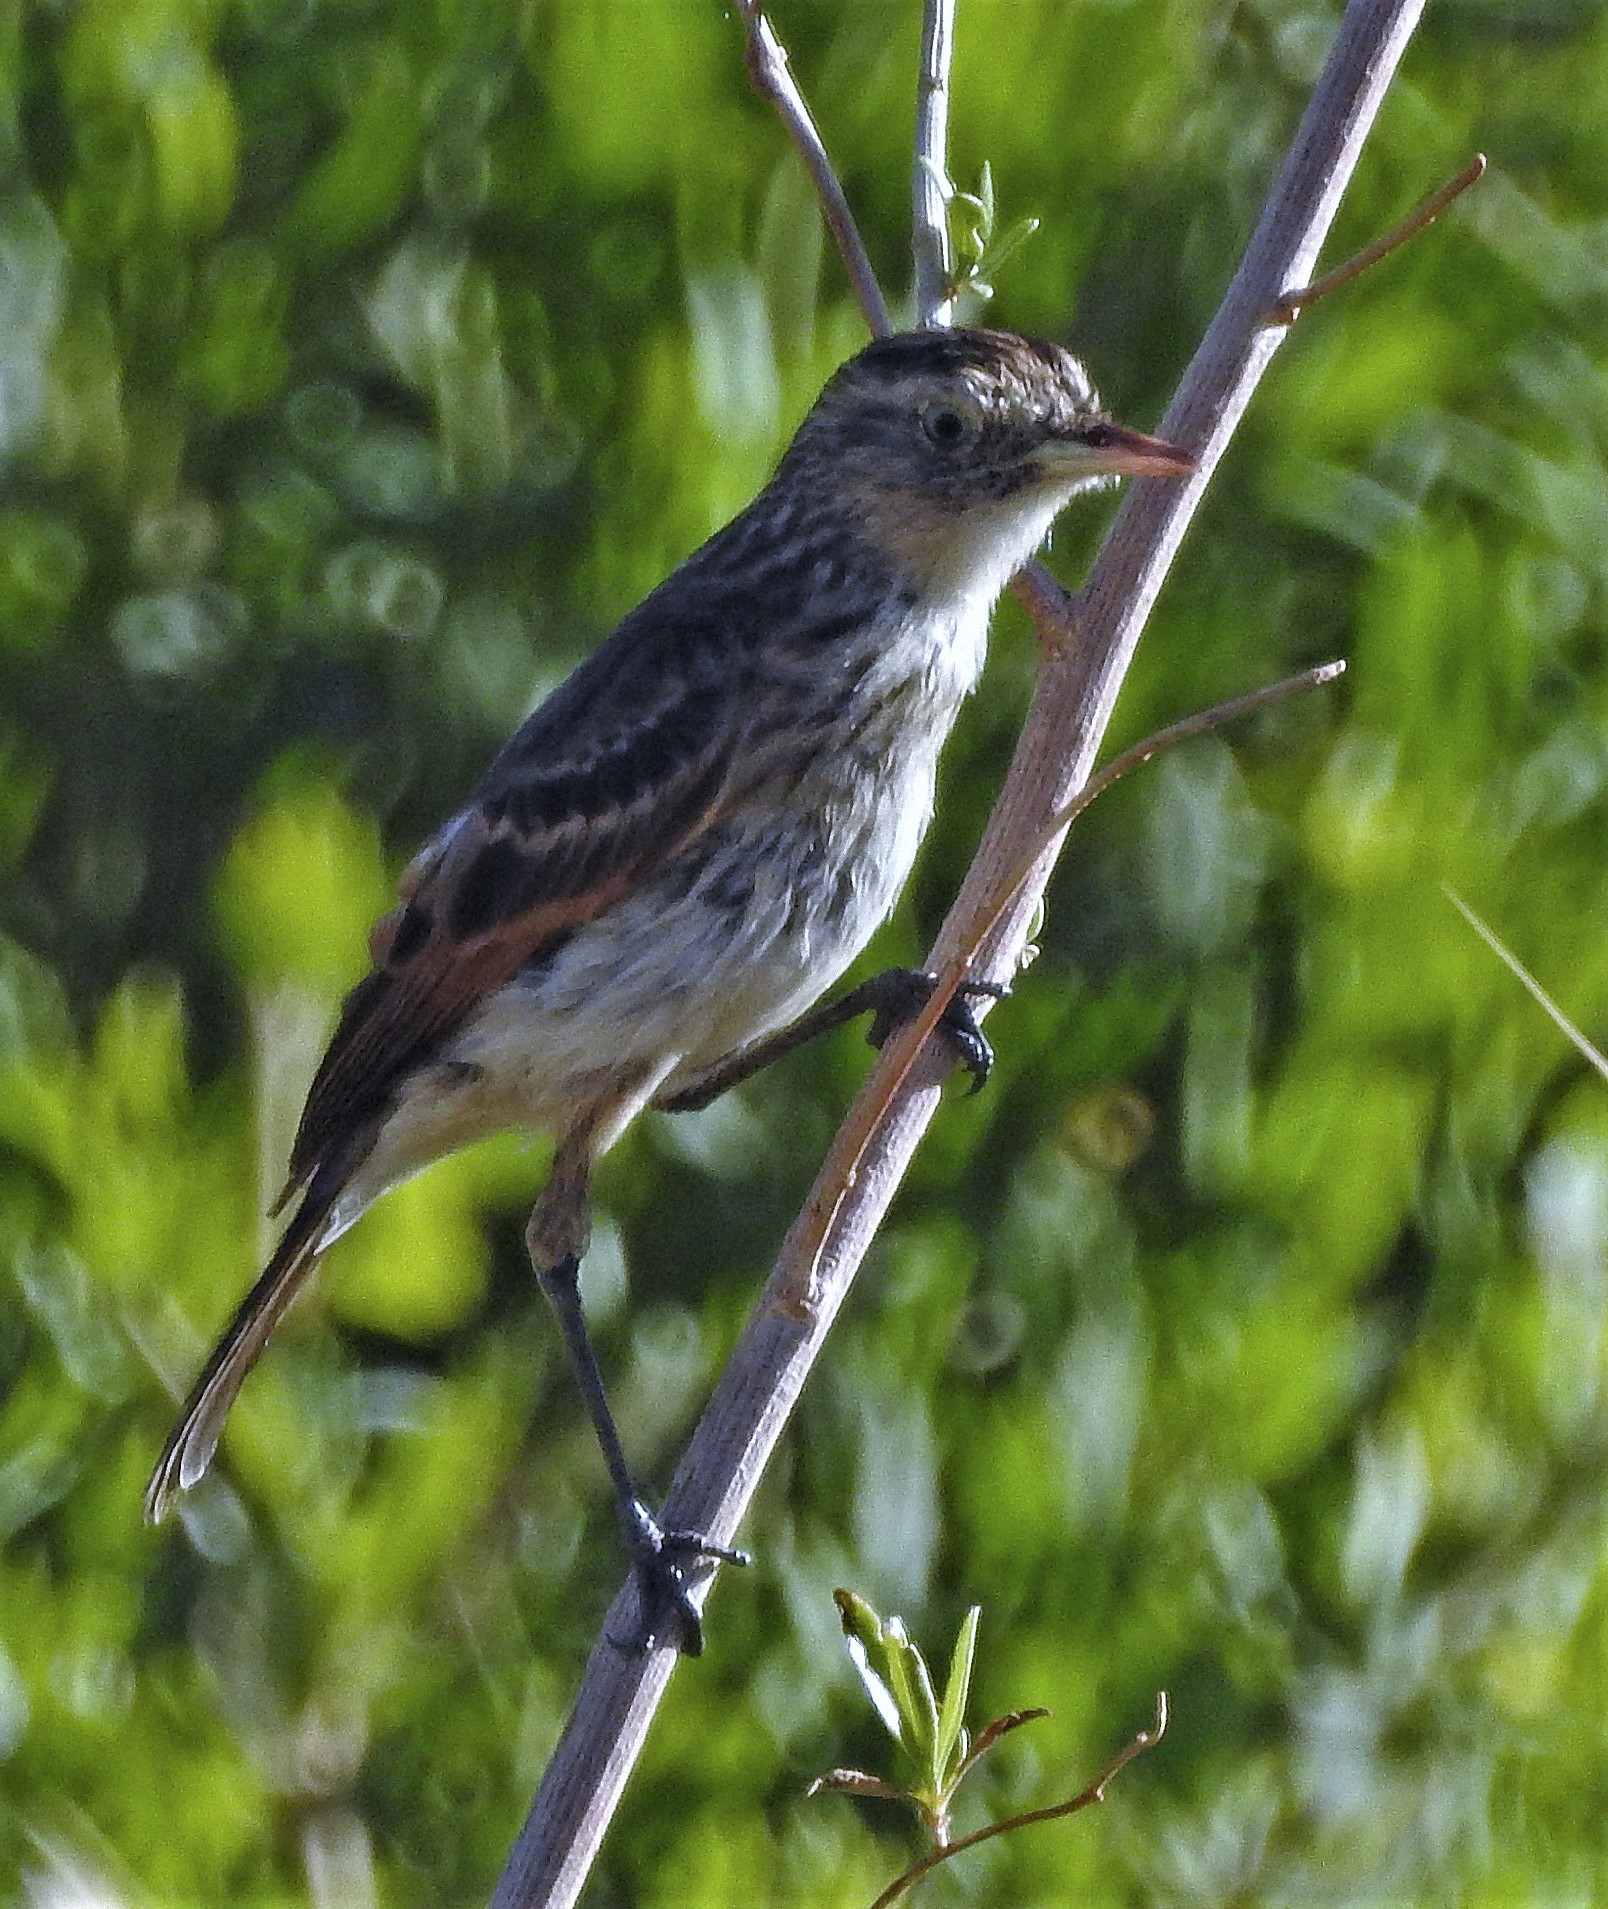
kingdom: Animalia
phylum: Chordata
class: Aves
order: Passeriformes
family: Tyrannidae
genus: Hymenops
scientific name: Hymenops perspicillatus
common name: Spectacled tyrant
